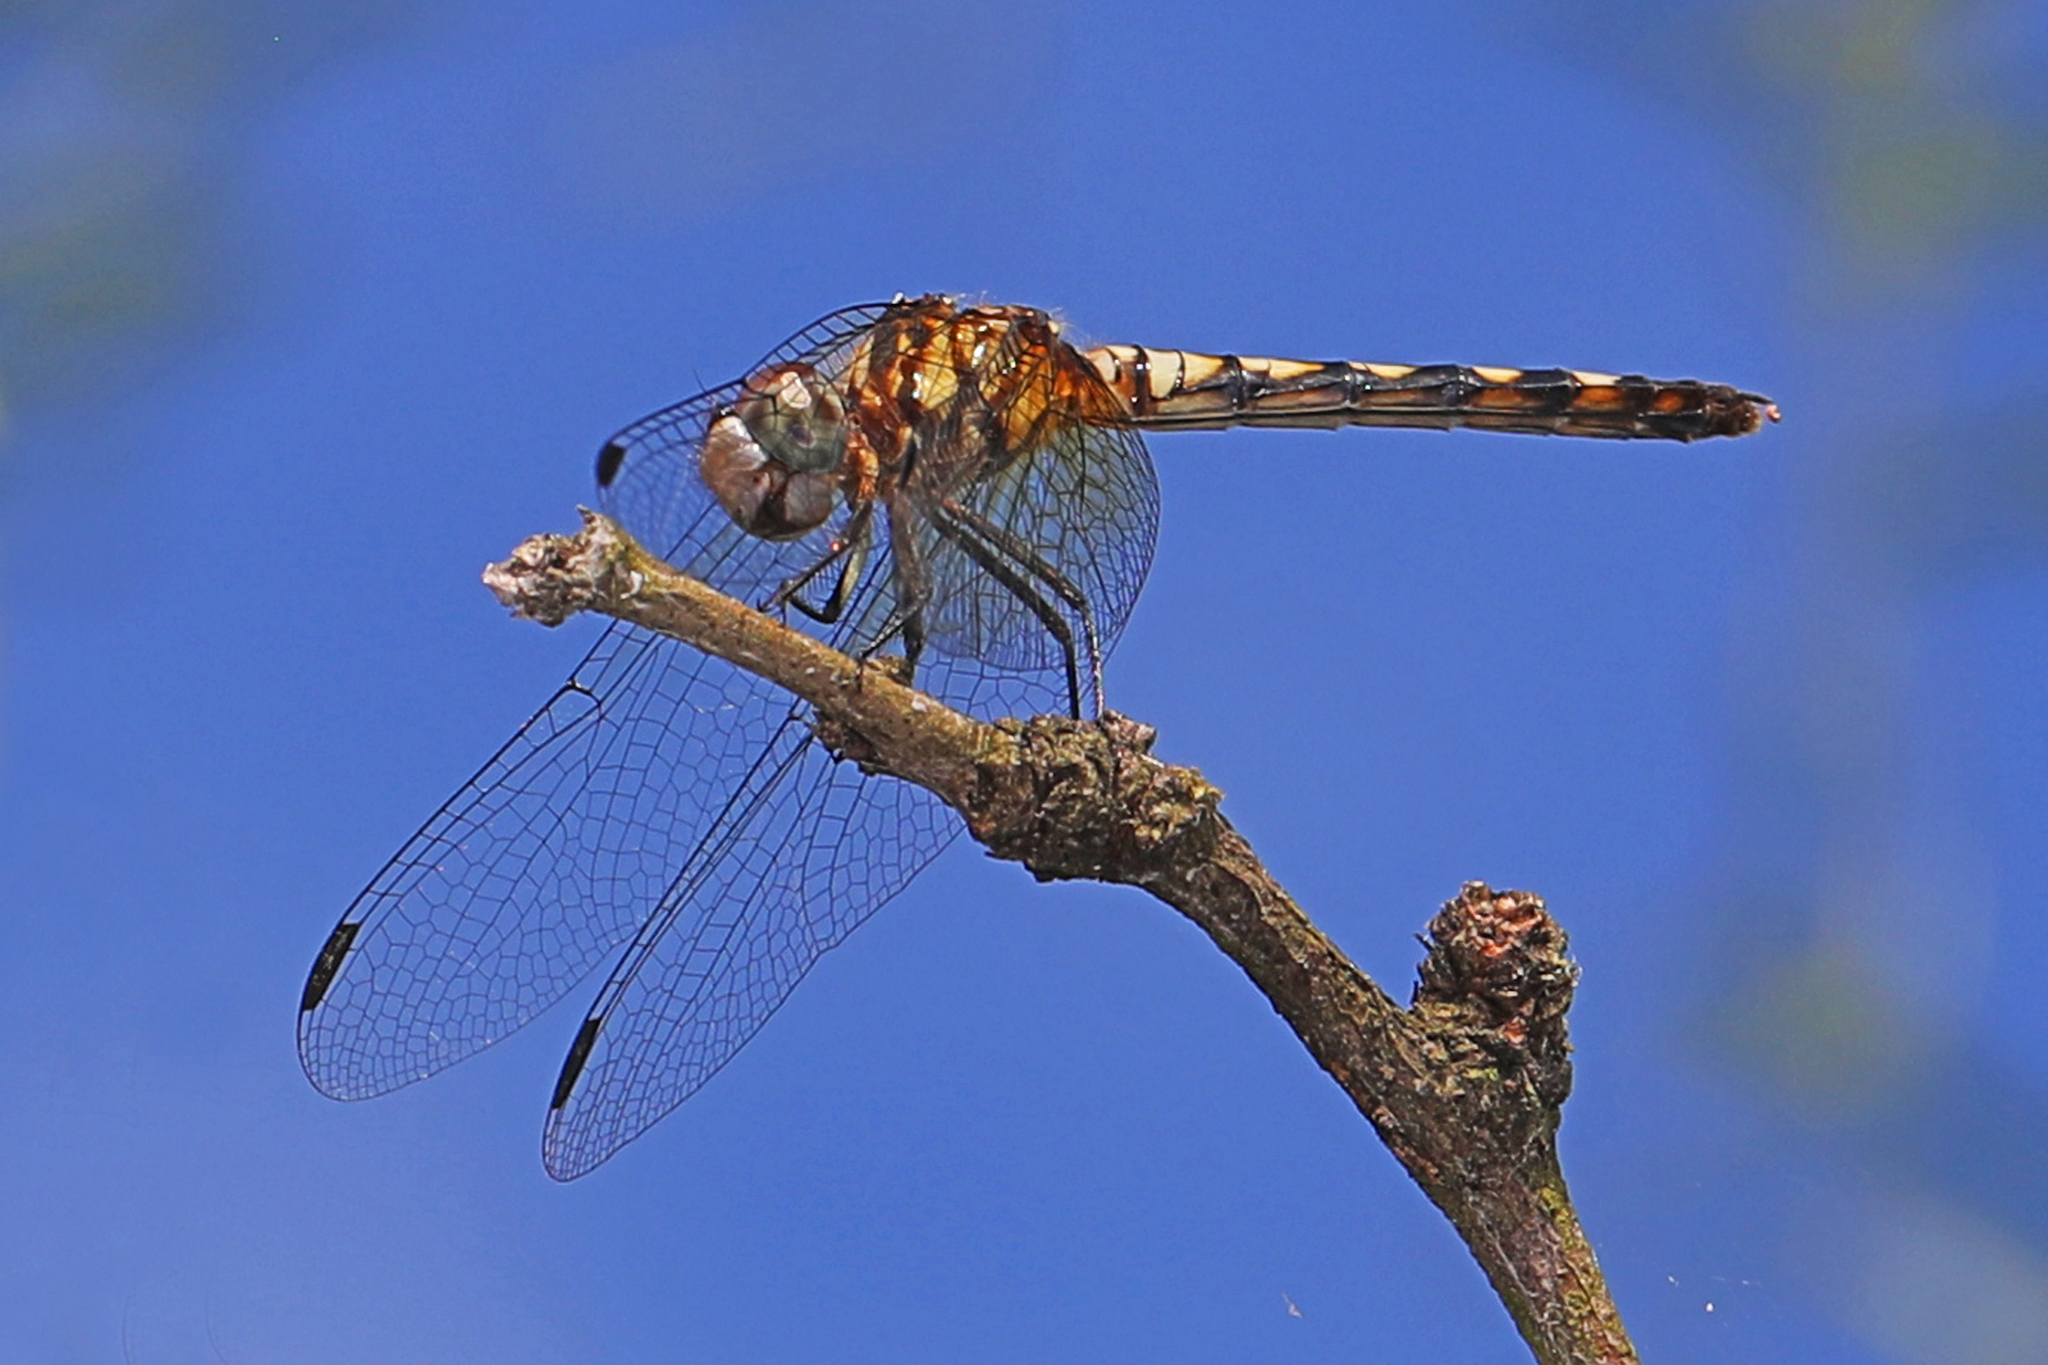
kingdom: Animalia
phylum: Arthropoda
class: Insecta
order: Odonata
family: Libellulidae
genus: Micrathyria
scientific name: Micrathyria hagenii
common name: Thornbush dasher
